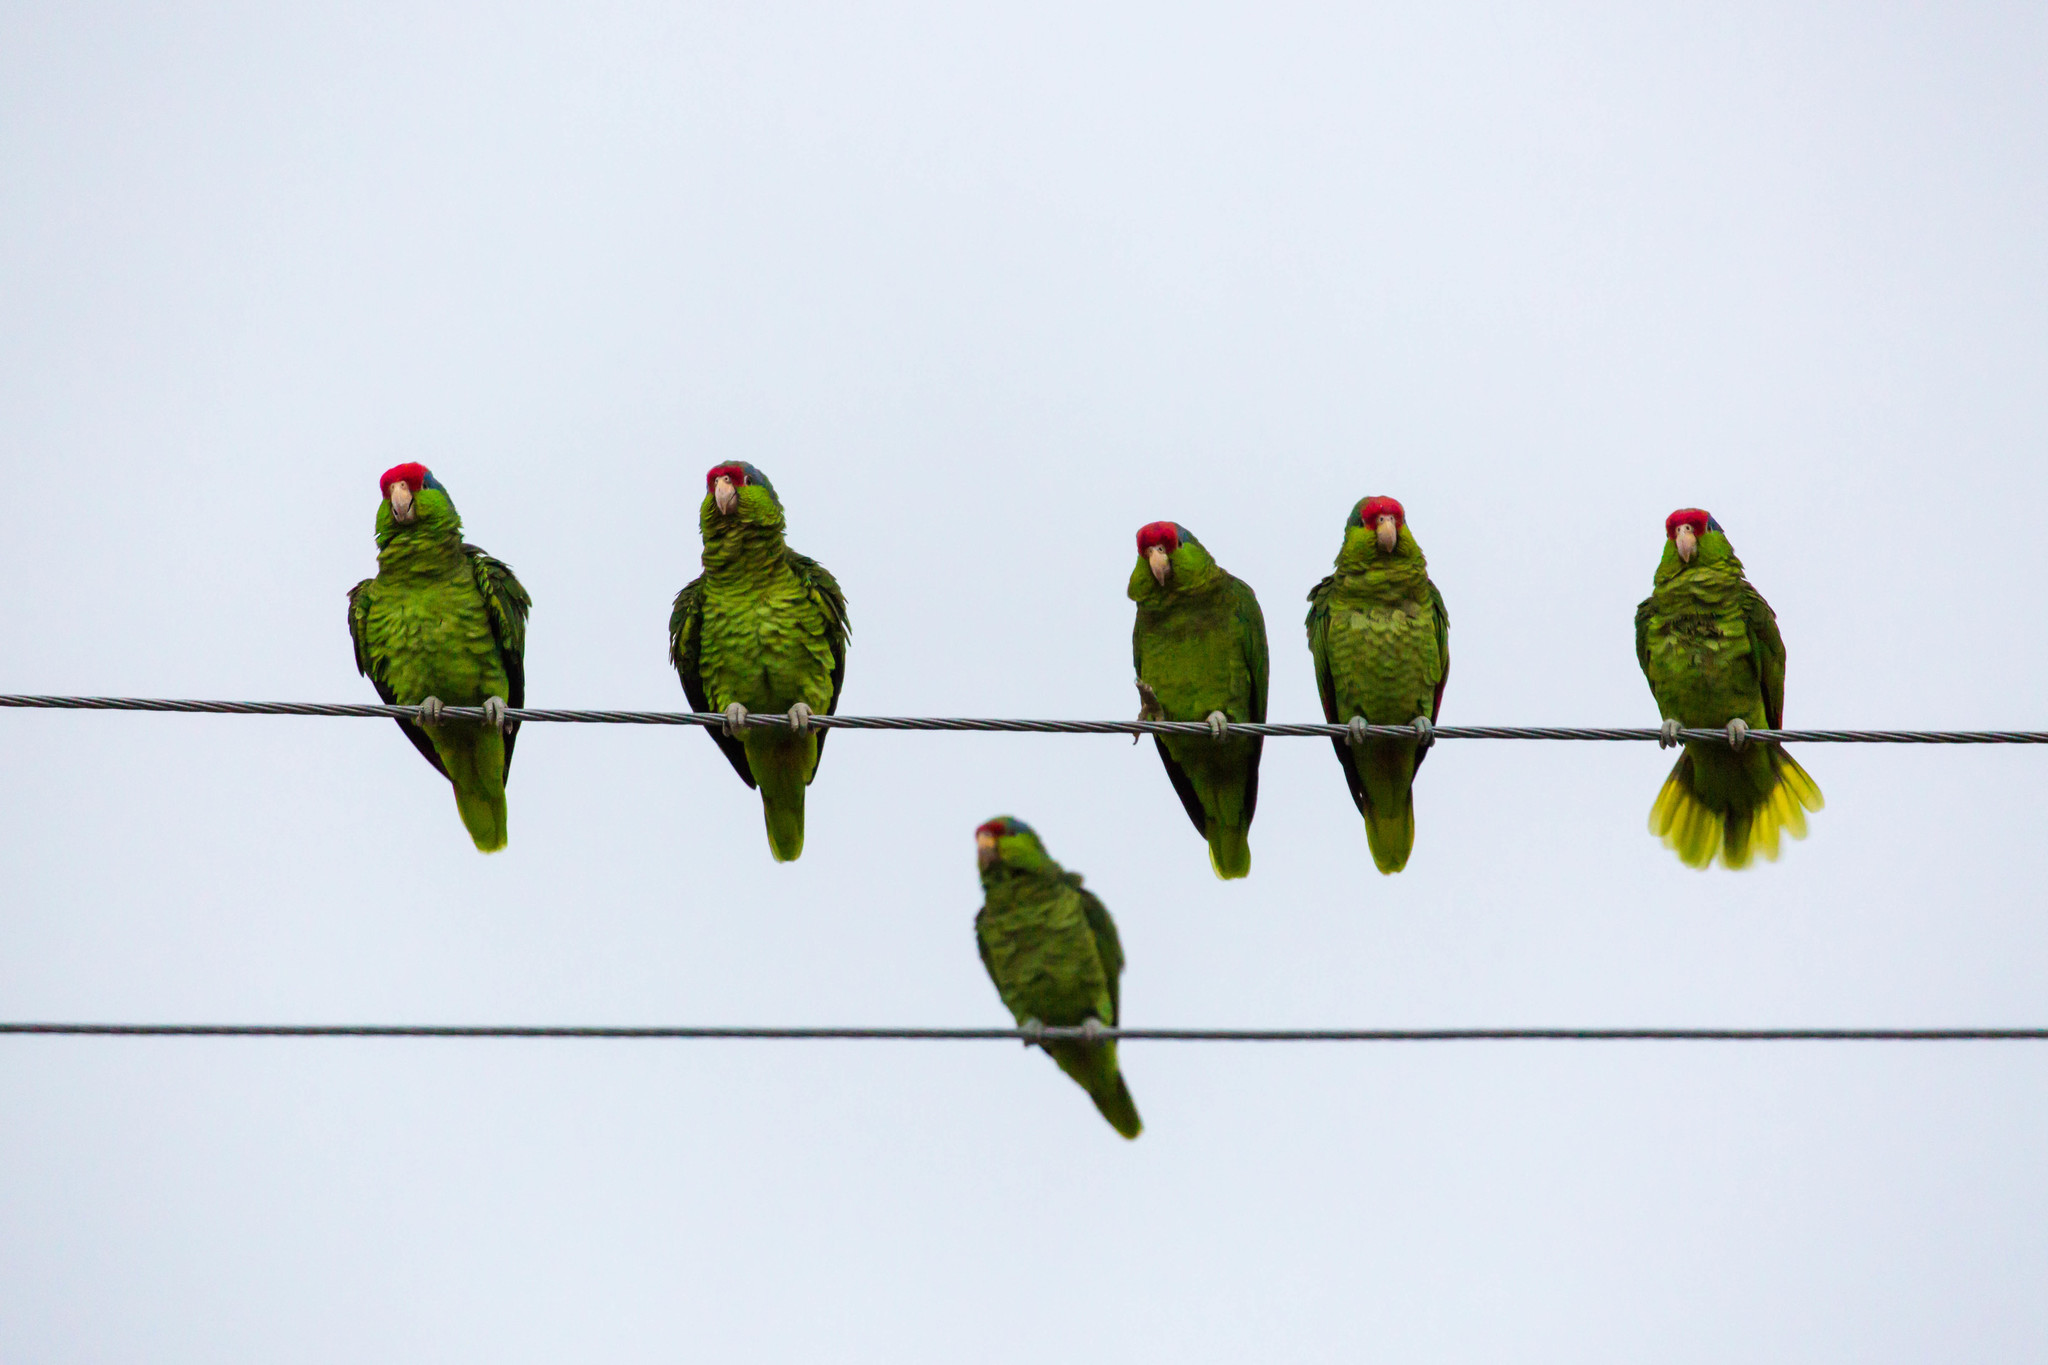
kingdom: Animalia
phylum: Chordata
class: Aves
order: Psittaciformes
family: Psittacidae
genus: Amazona
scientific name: Amazona viridigenalis
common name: Red-crowned amazon
